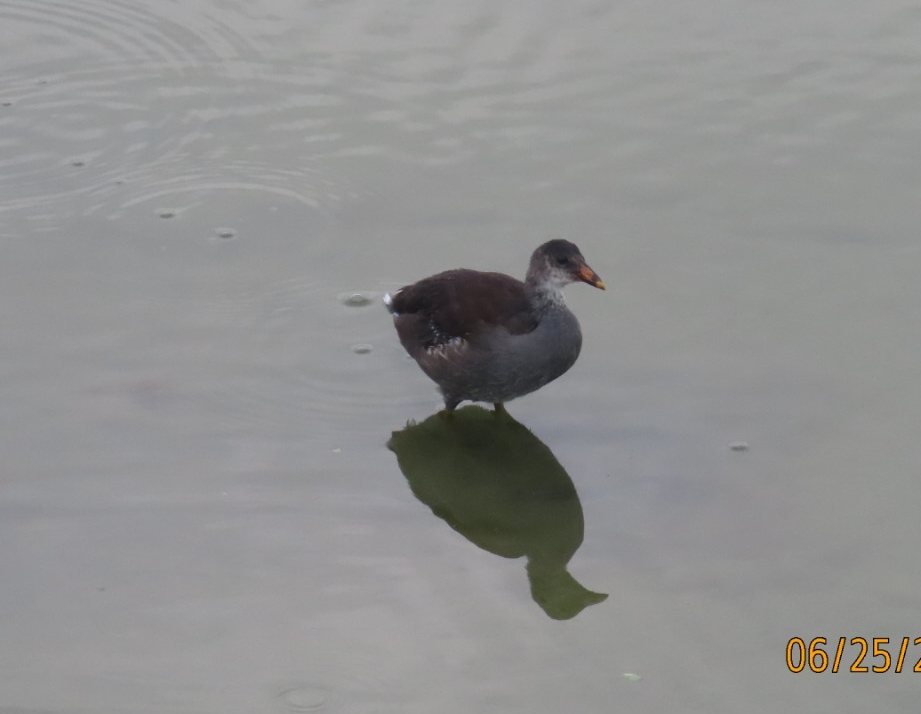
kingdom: Animalia
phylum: Chordata
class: Aves
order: Gruiformes
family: Rallidae
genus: Gallinula
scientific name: Gallinula chloropus
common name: Common moorhen
